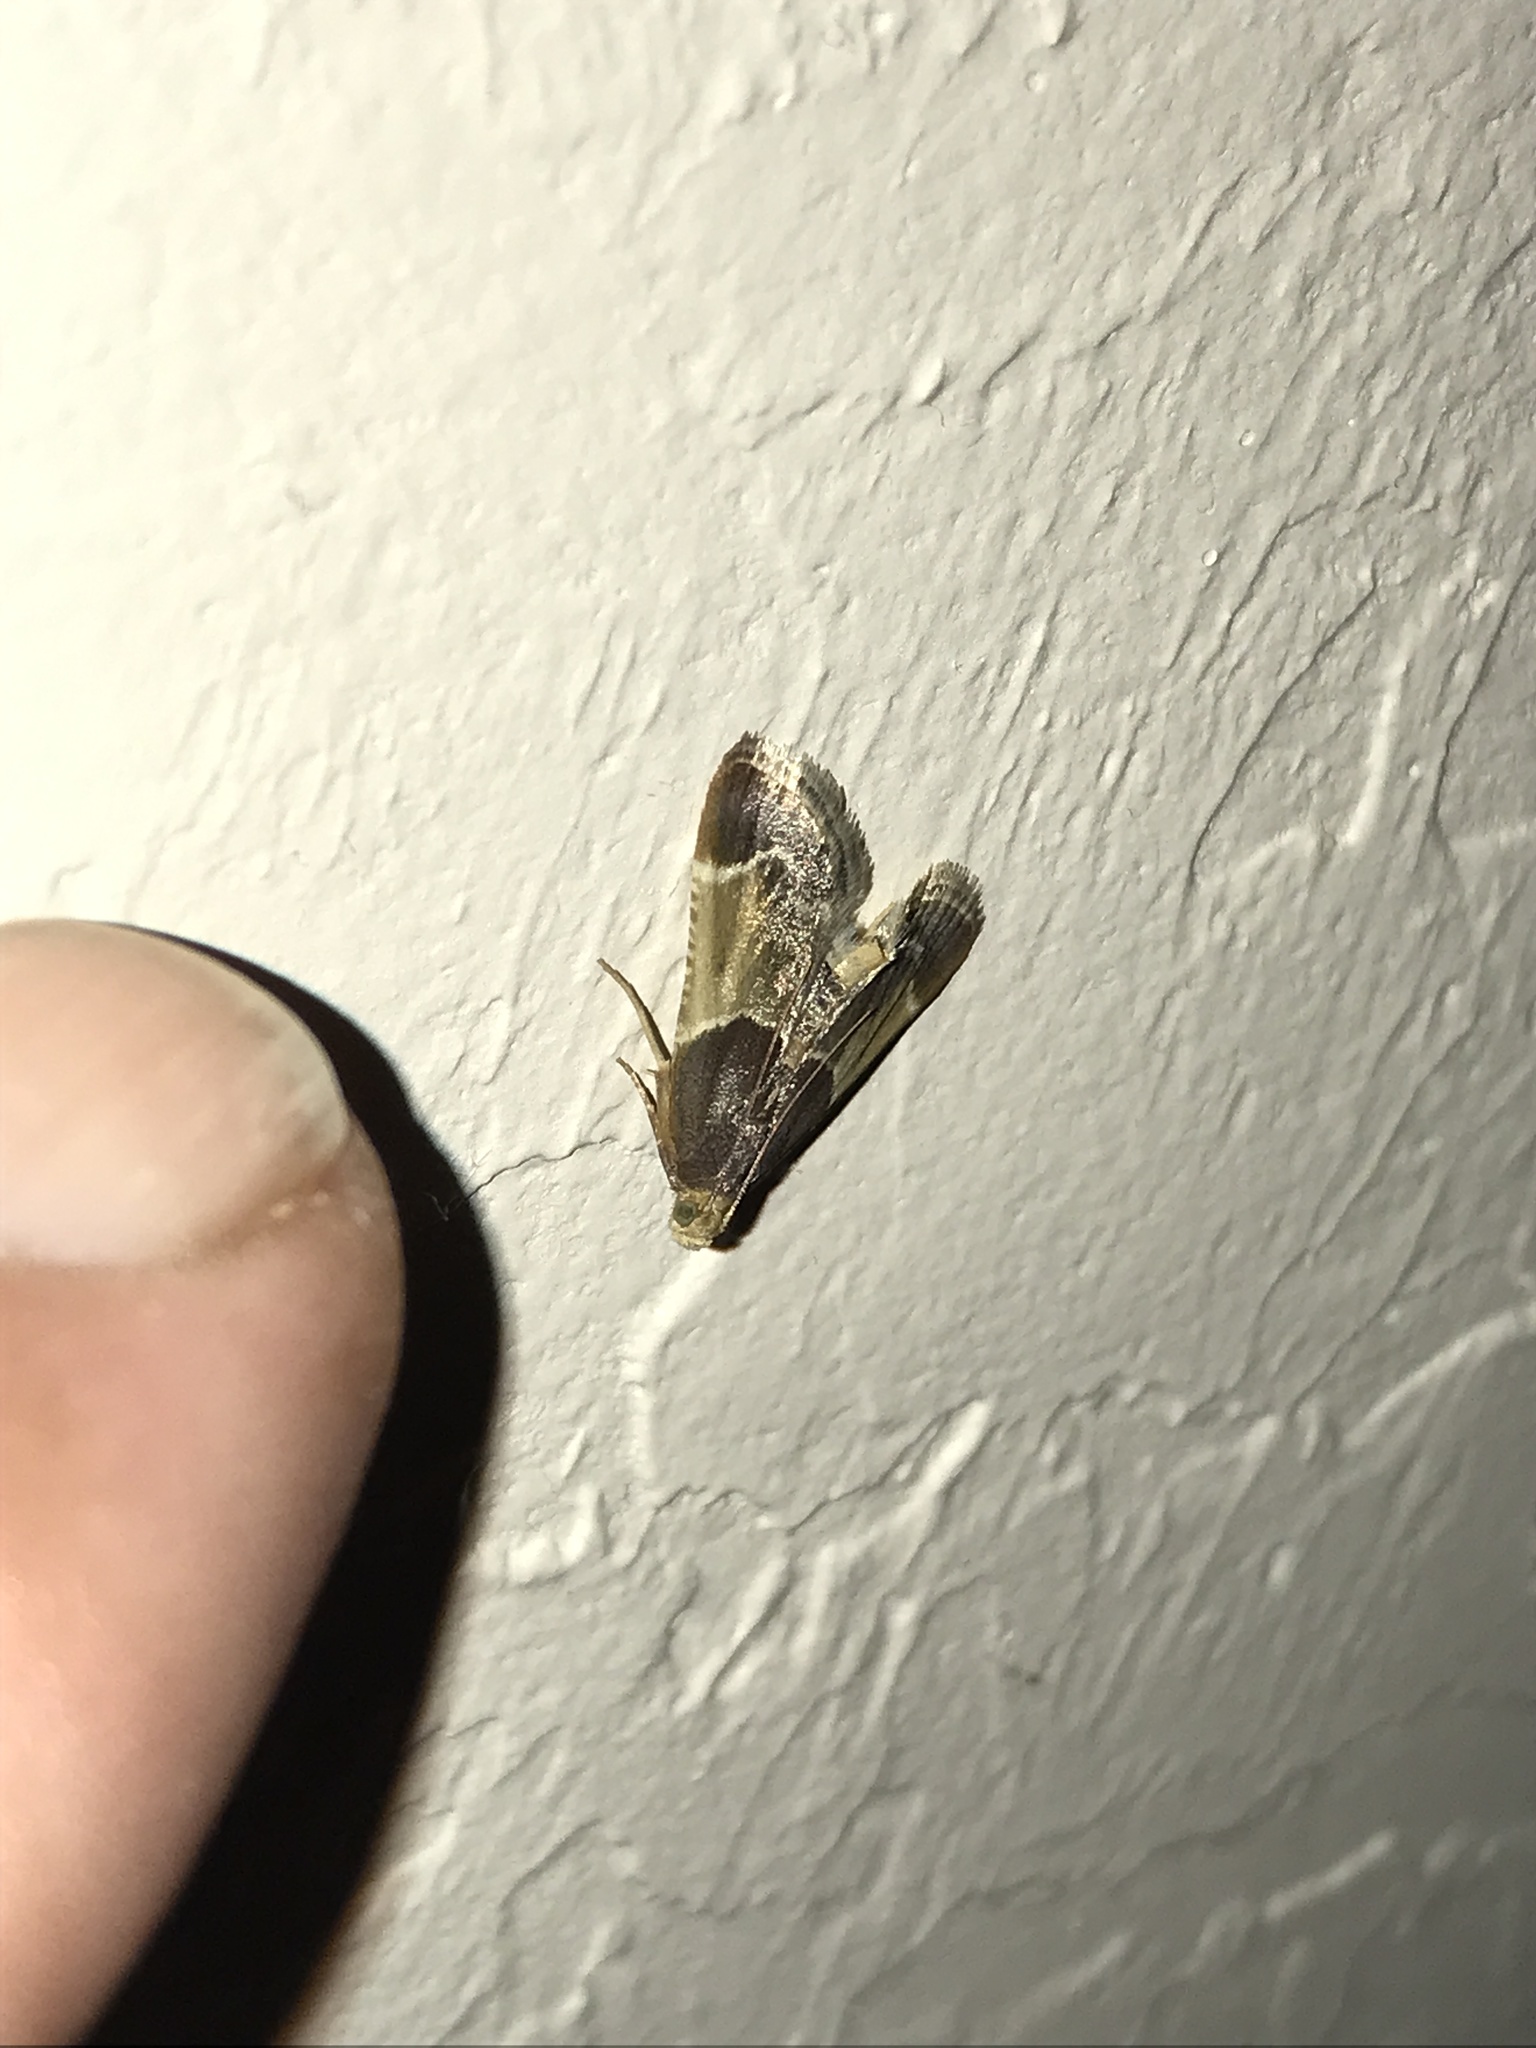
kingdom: Animalia
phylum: Arthropoda
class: Insecta
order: Lepidoptera
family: Pyralidae
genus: Pyralis
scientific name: Pyralis farinalis
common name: Meal moth
